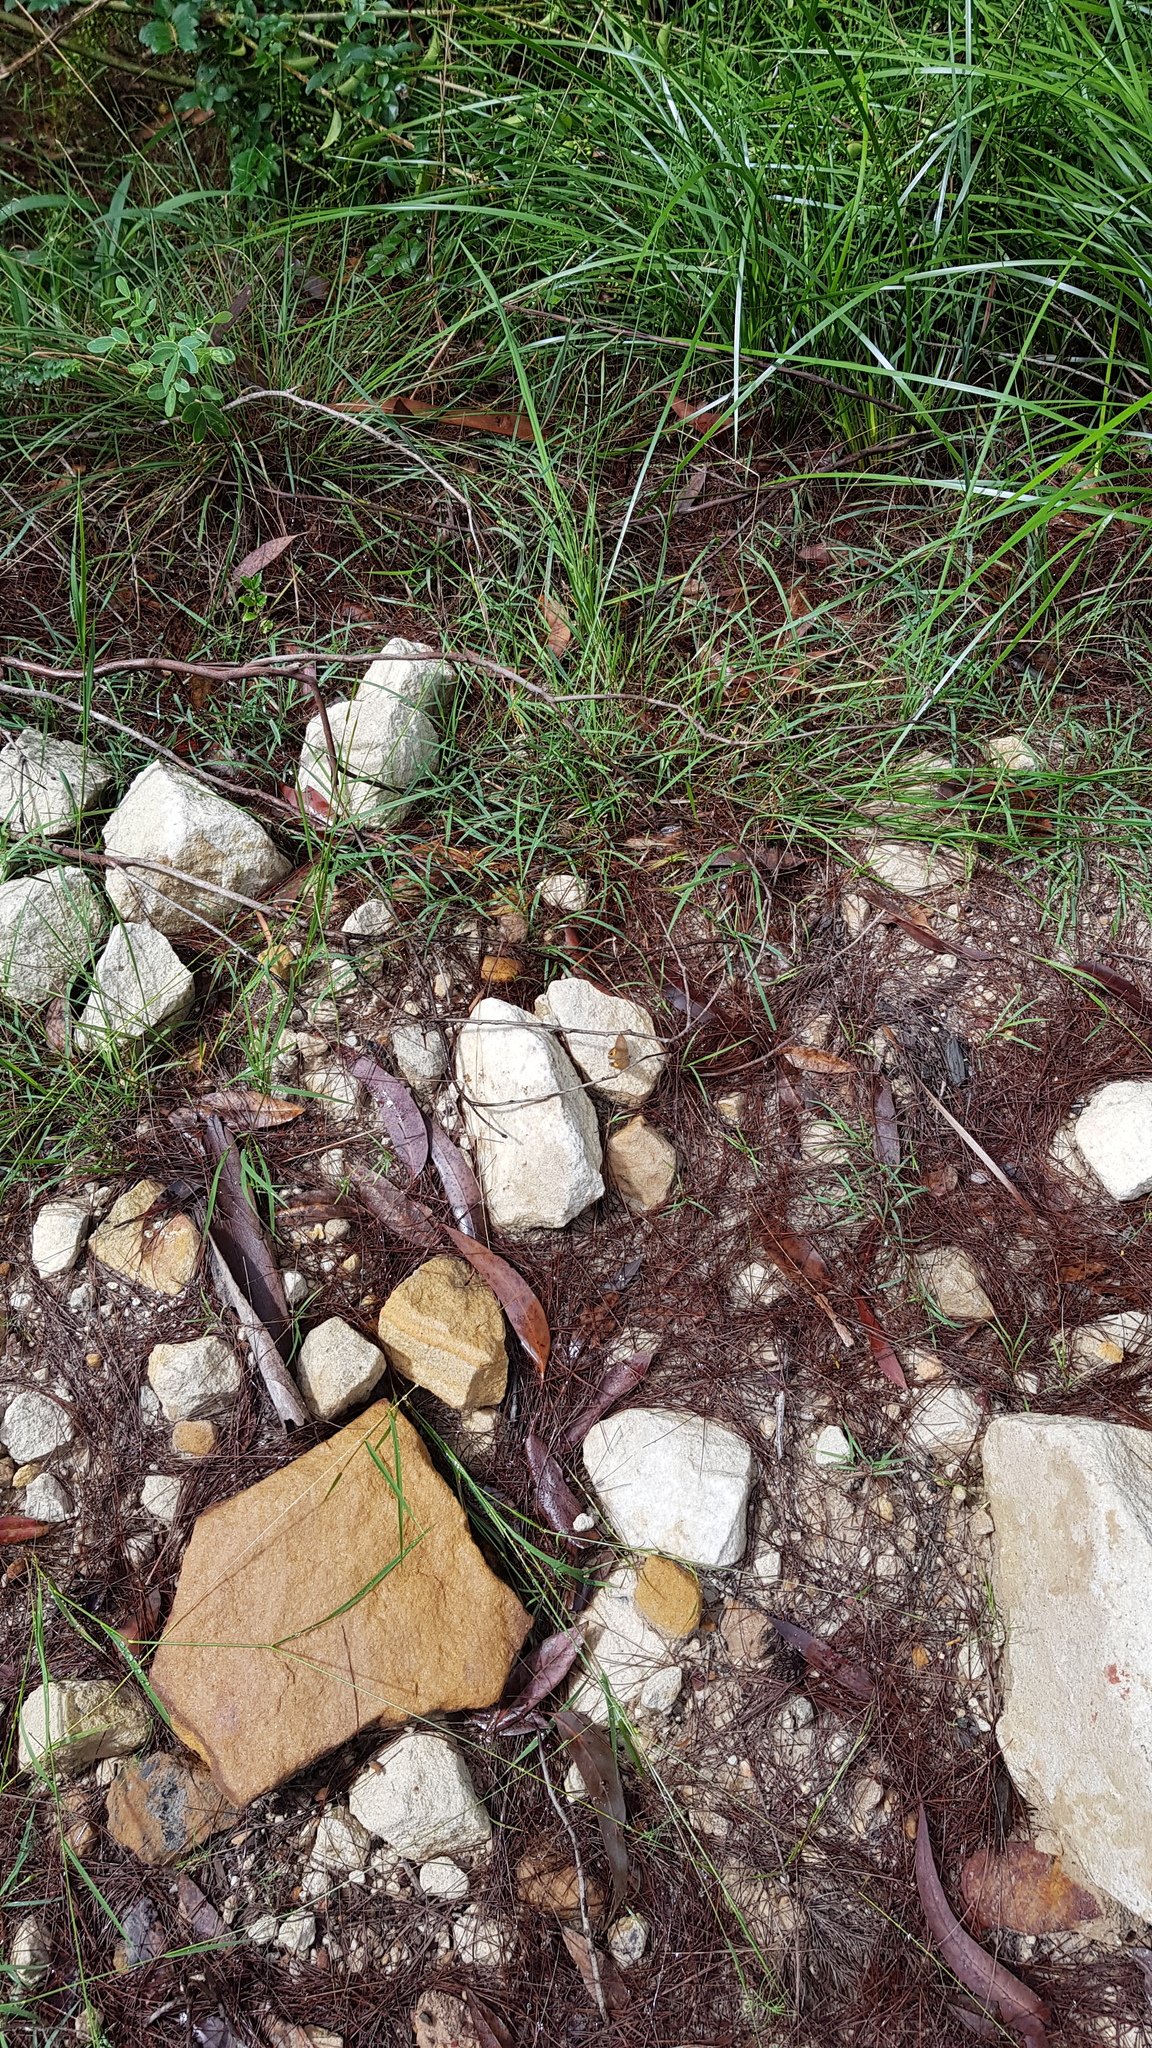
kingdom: Animalia
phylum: Arthropoda
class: Insecta
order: Lepidoptera
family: Nymphalidae
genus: Hypocysta
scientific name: Hypocysta metirius
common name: Brown ringlet
